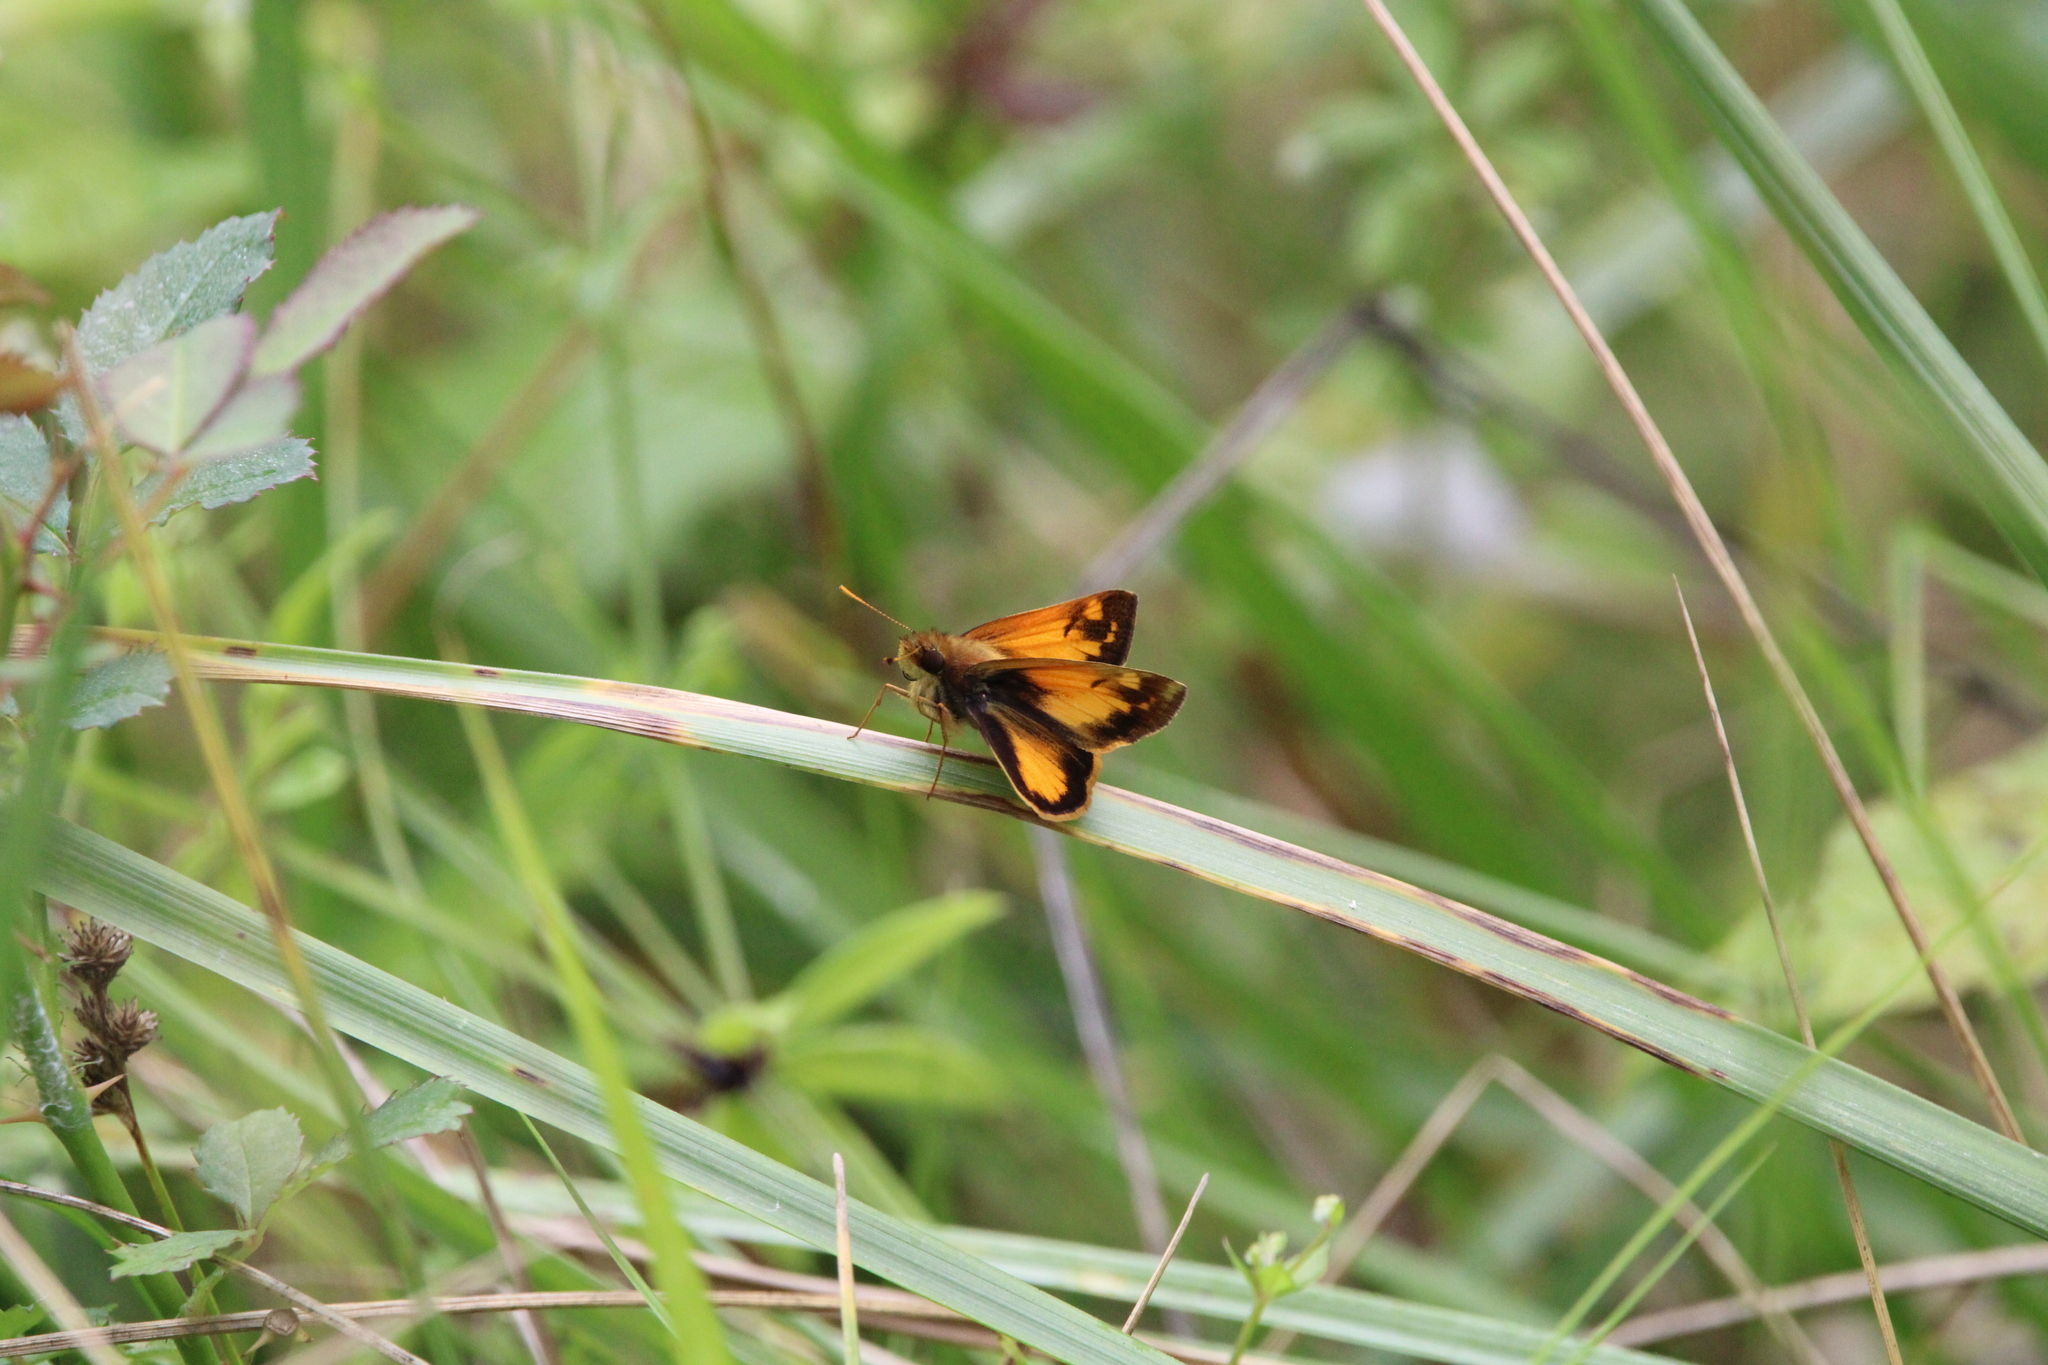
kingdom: Animalia
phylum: Arthropoda
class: Insecta
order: Lepidoptera
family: Hesperiidae
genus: Lon
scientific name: Lon zabulon
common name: Zabulon skipper
